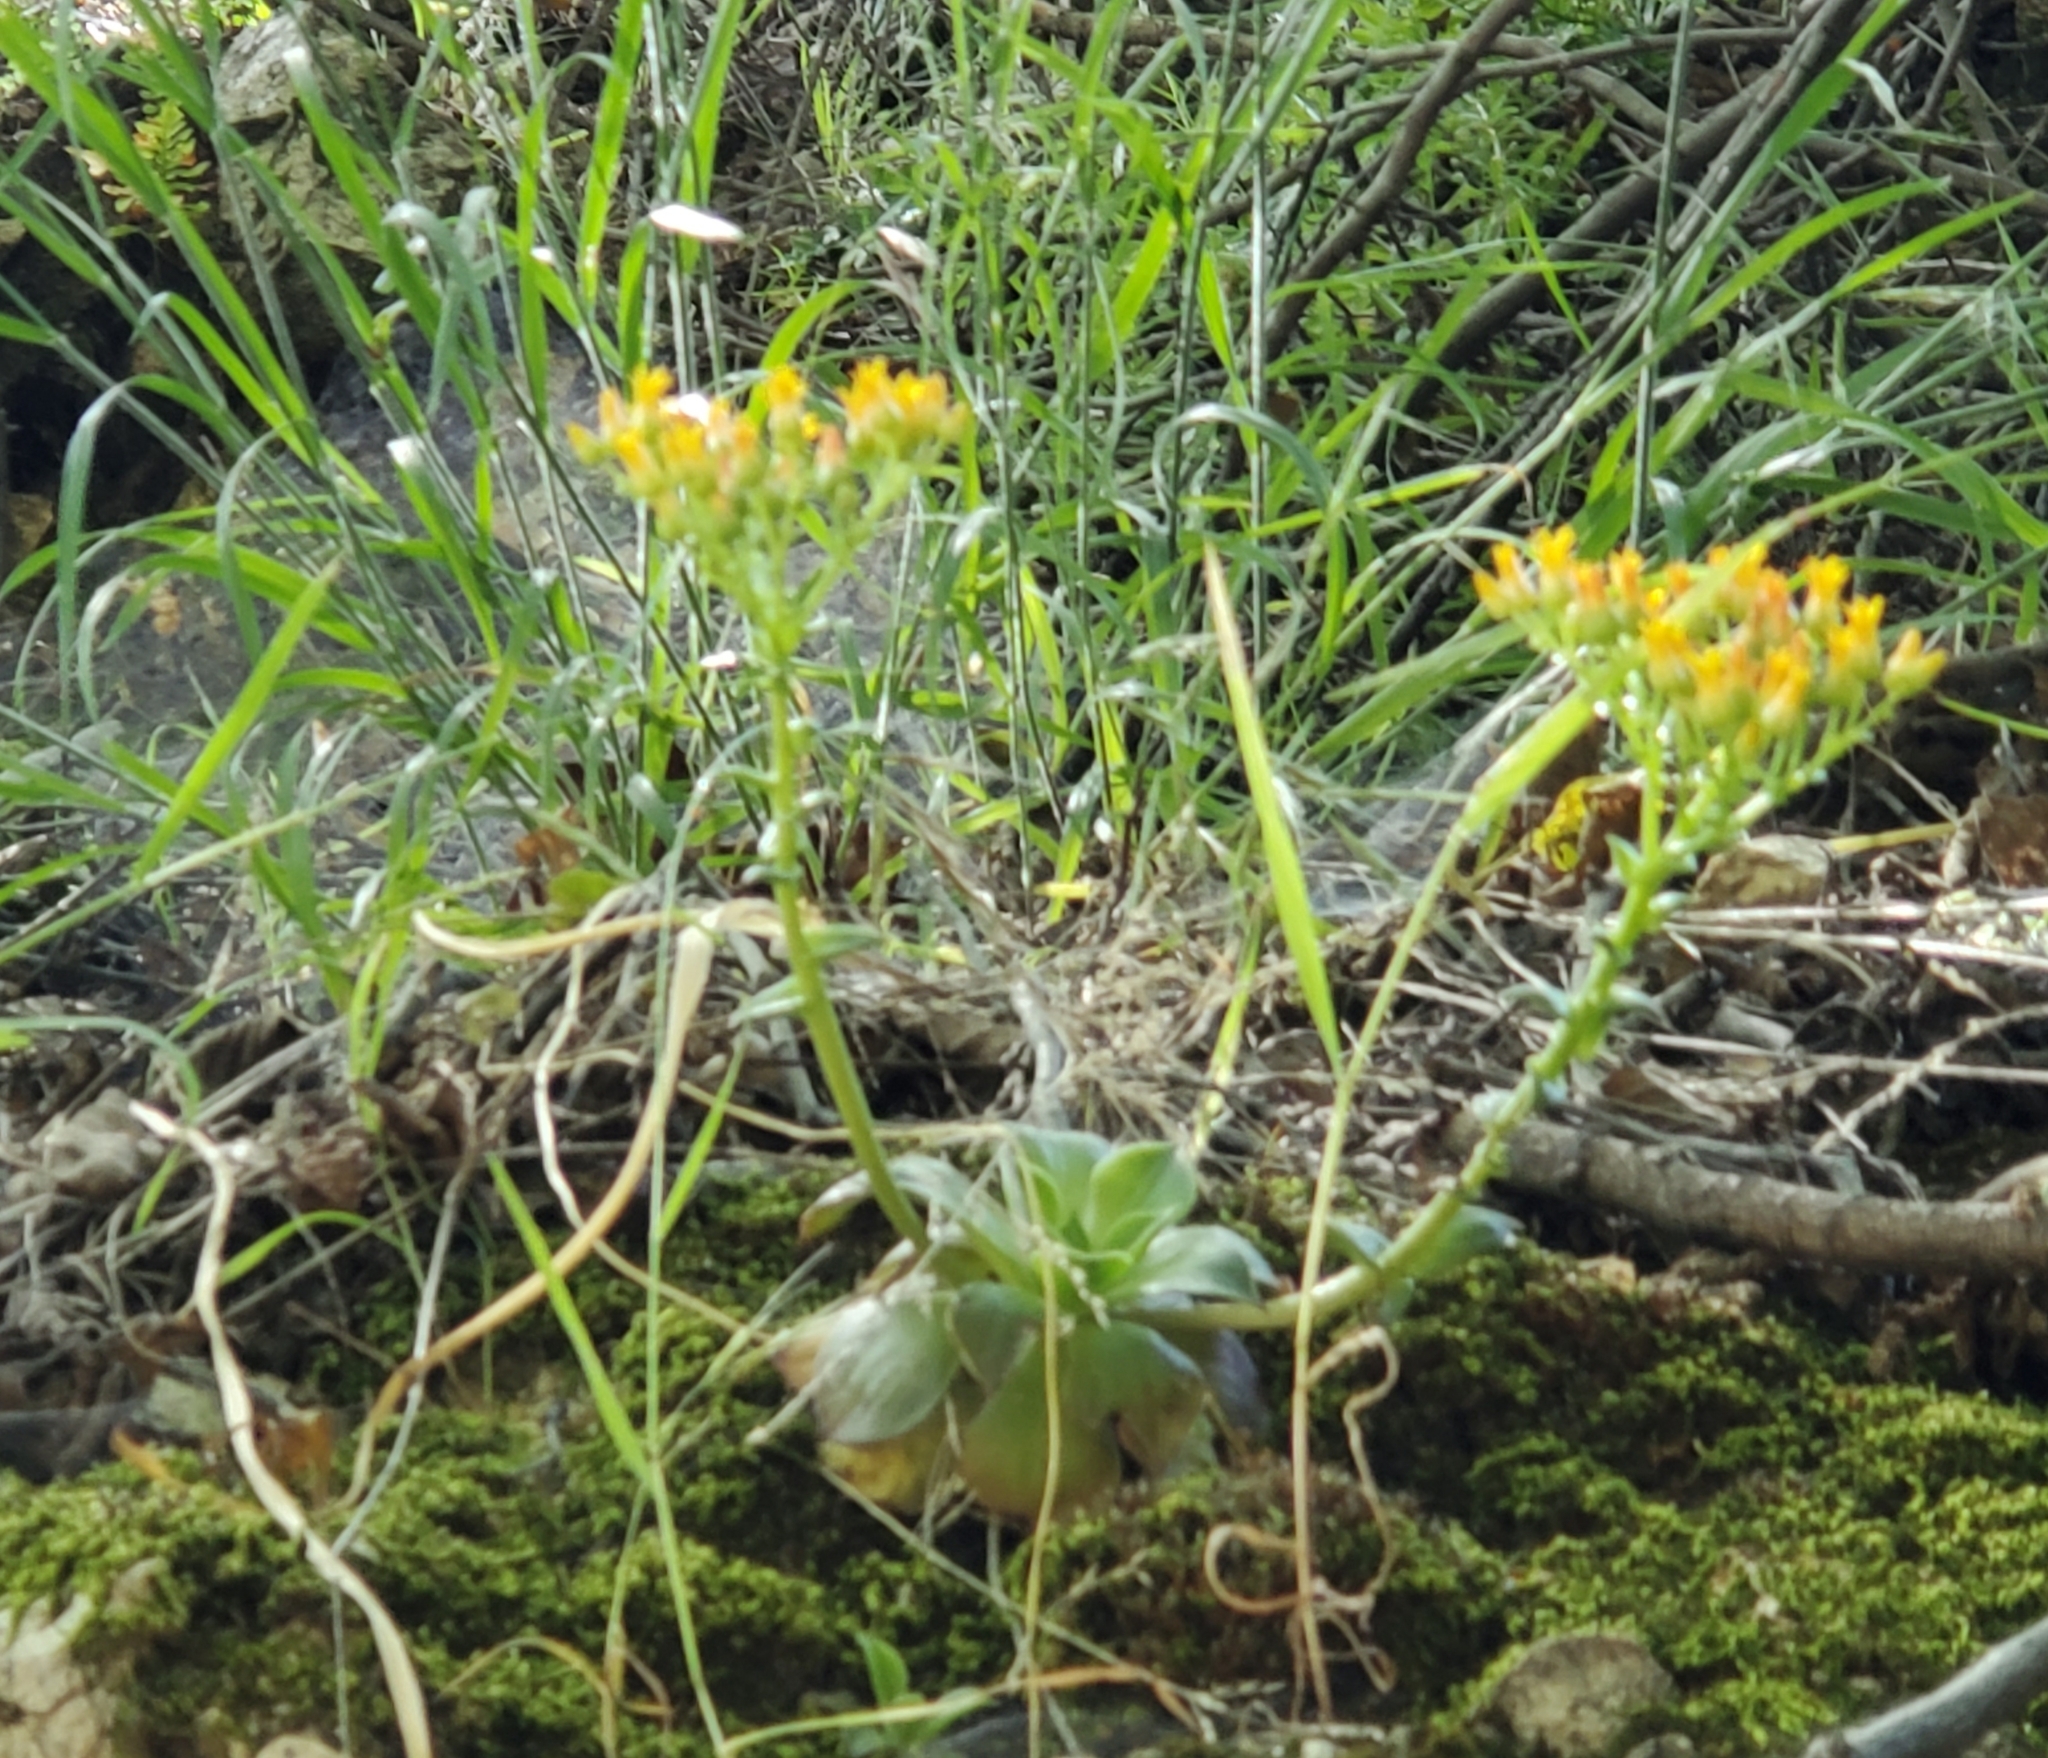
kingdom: Plantae
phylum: Tracheophyta
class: Magnoliopsida
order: Saxifragales
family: Crassulaceae
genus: Dudleya
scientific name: Dudleya cymosa
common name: Canyon dudleya
